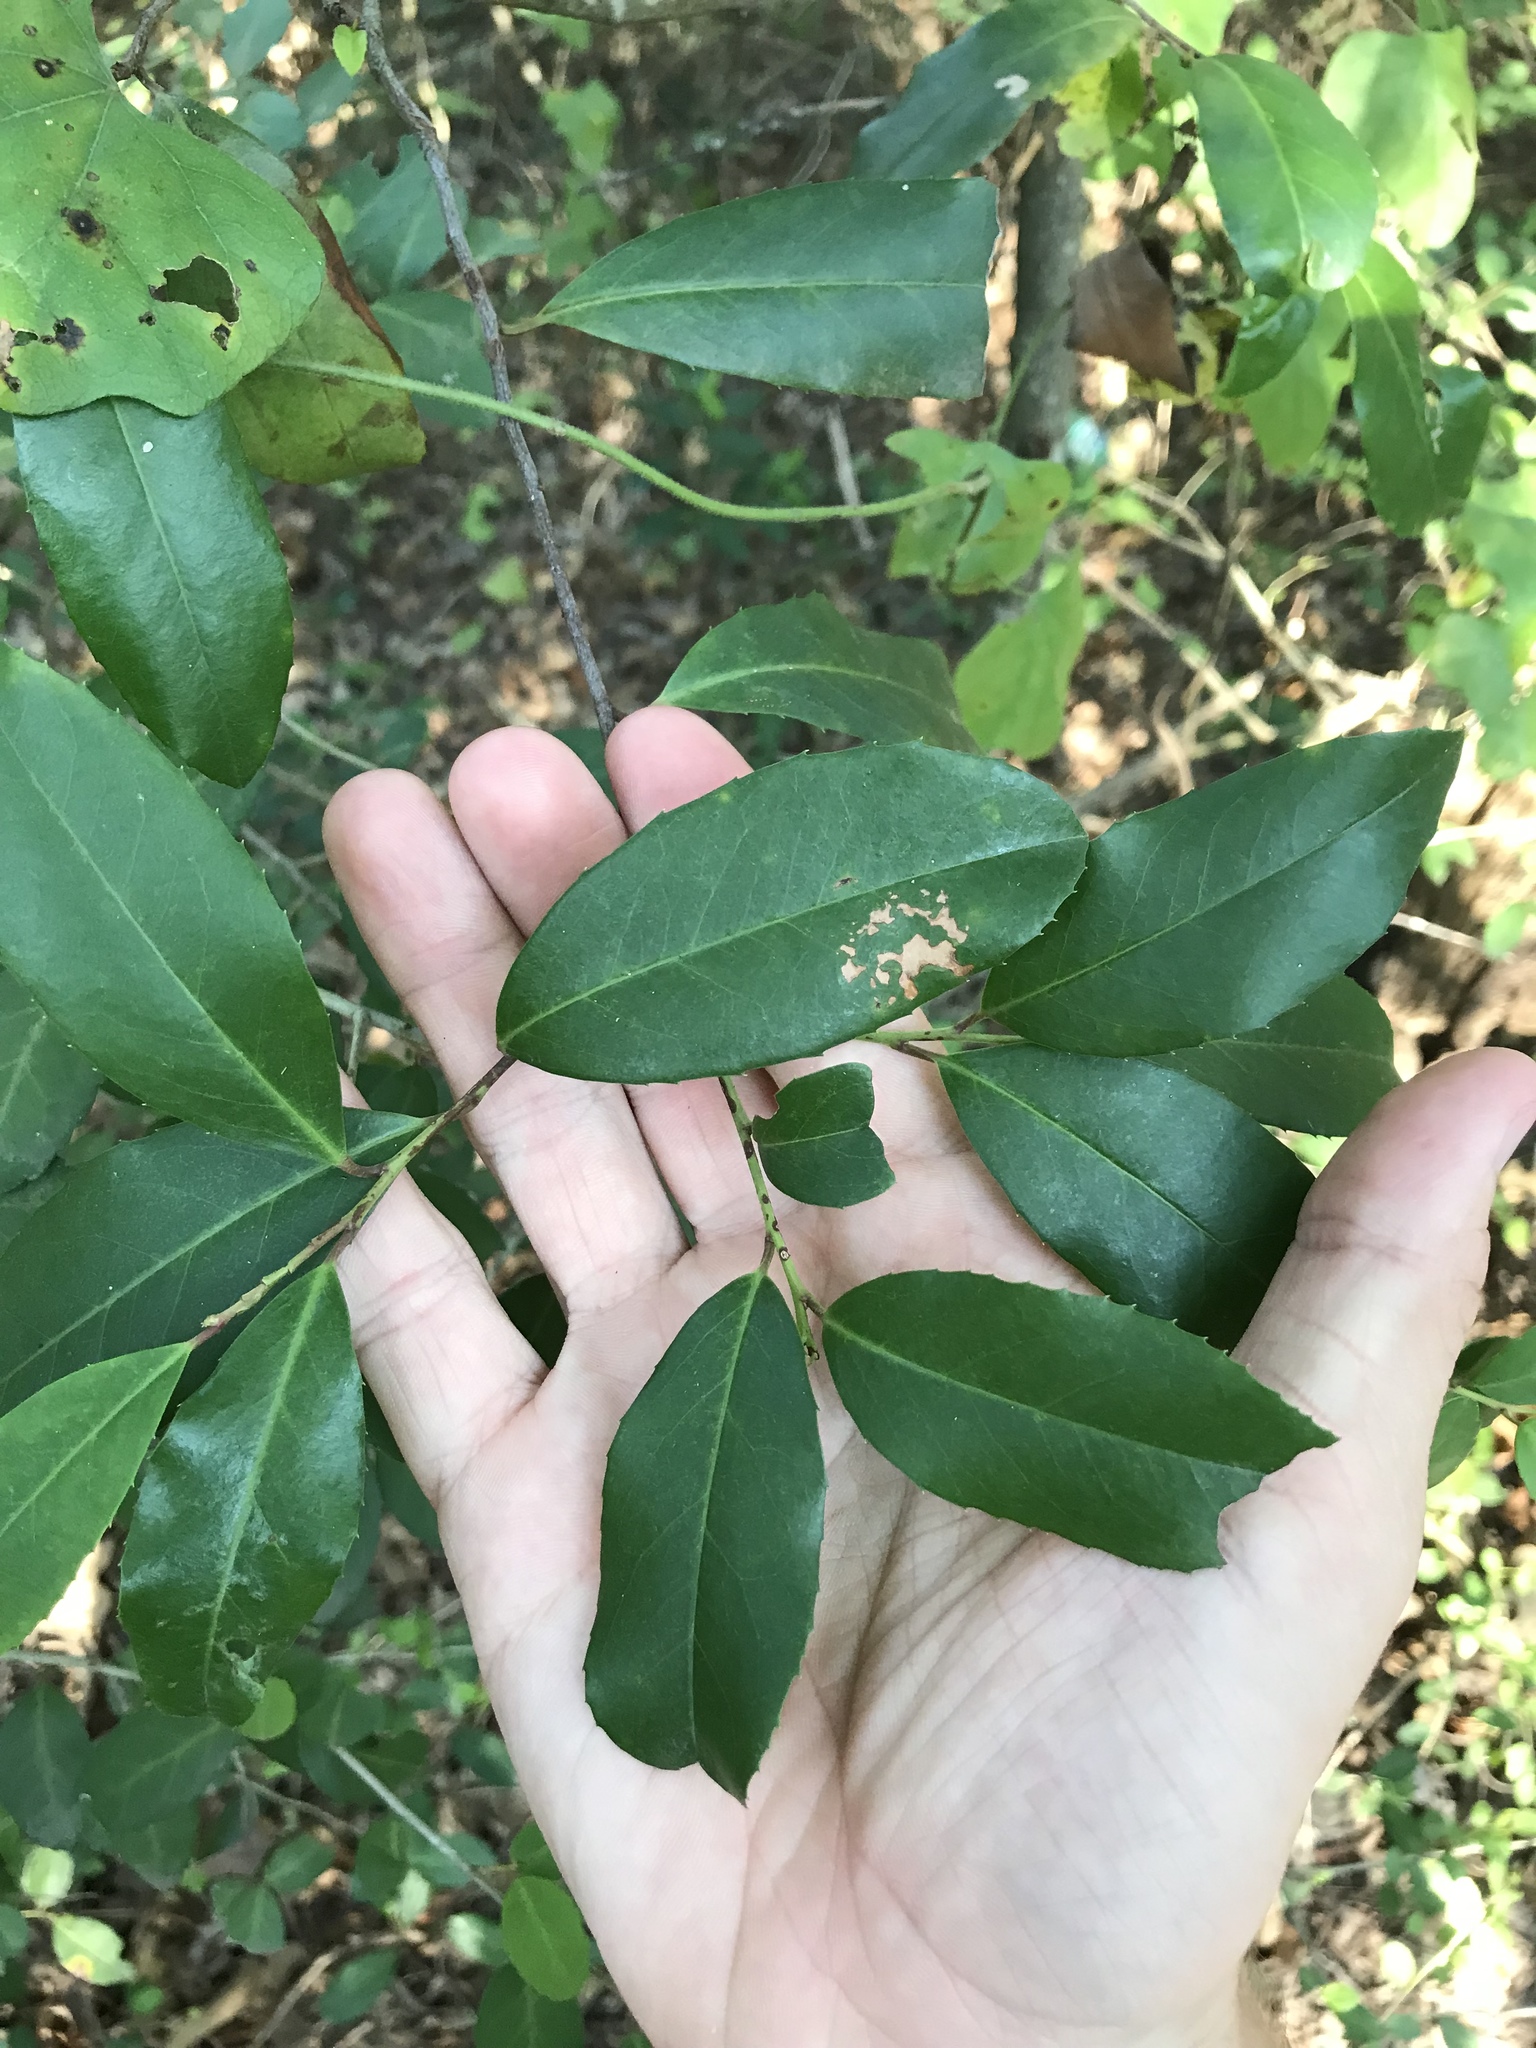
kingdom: Plantae
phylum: Tracheophyta
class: Magnoliopsida
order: Rosales
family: Rosaceae
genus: Prunus
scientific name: Prunus caroliniana
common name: Carolina laurel cherry
